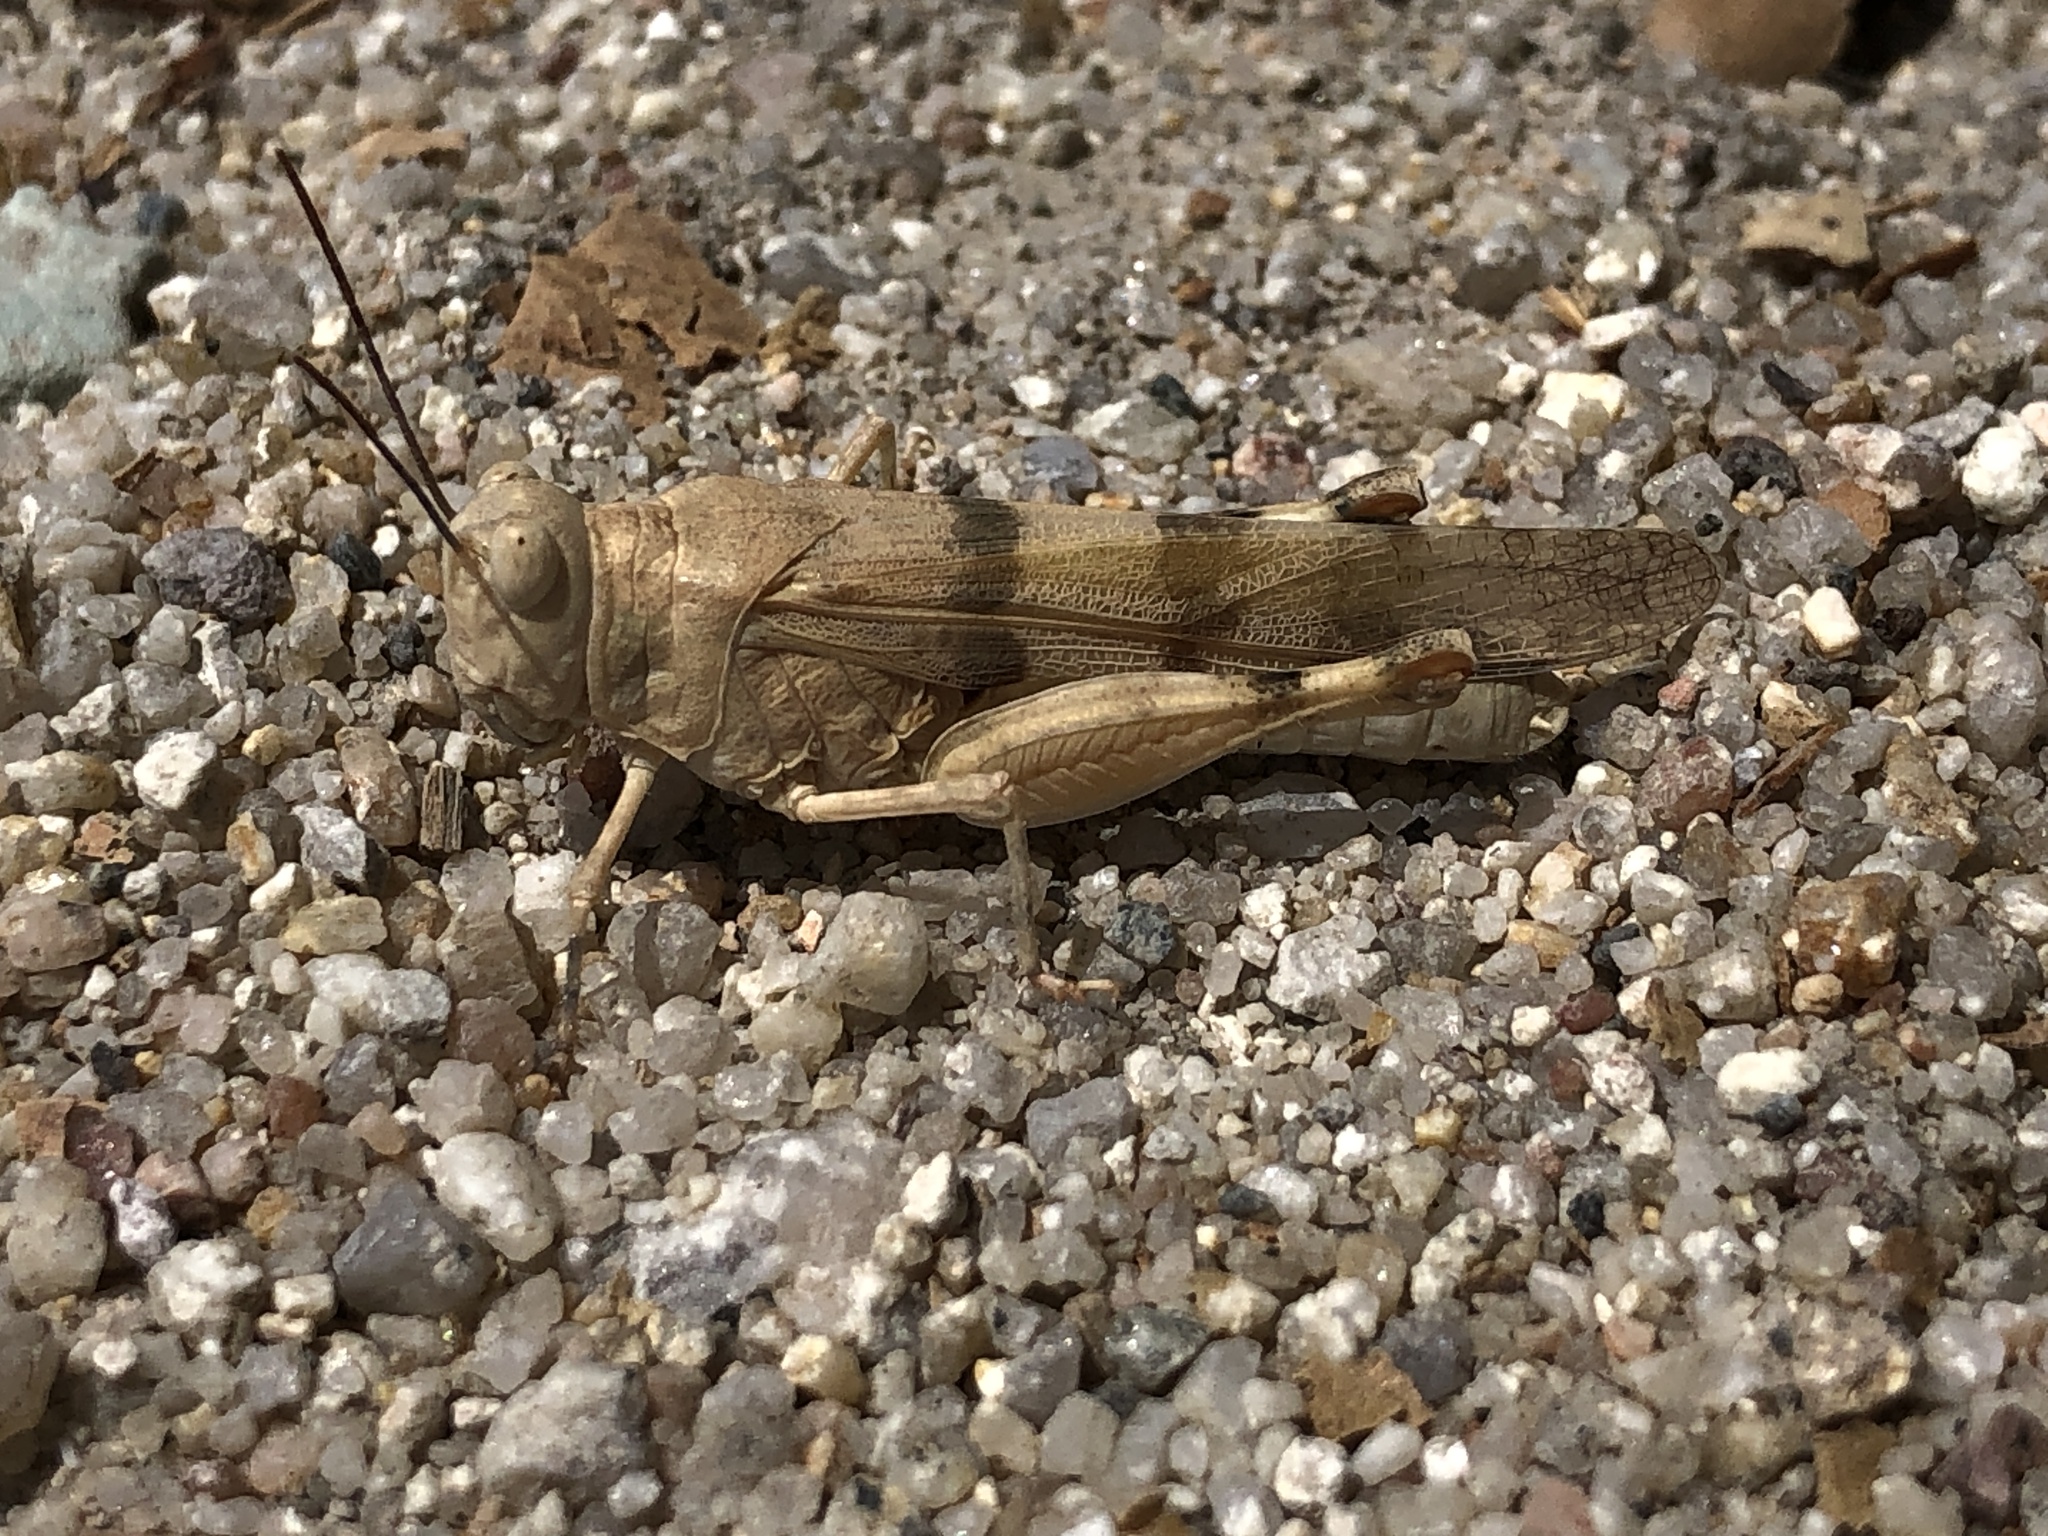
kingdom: Animalia
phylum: Arthropoda
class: Insecta
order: Orthoptera
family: Acrididae
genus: Trimerotropis
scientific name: Trimerotropis titusi
